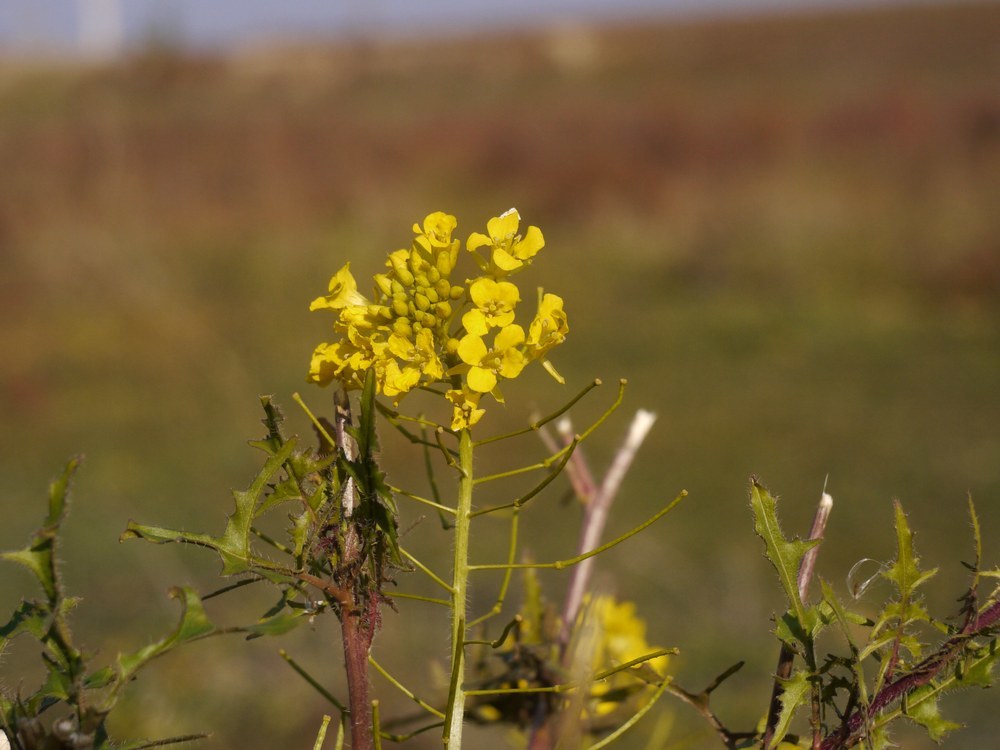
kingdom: Plantae
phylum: Tracheophyta
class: Magnoliopsida
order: Brassicales
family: Brassicaceae
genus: Sisymbrium
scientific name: Sisymbrium loeselii
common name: False london-rocket
